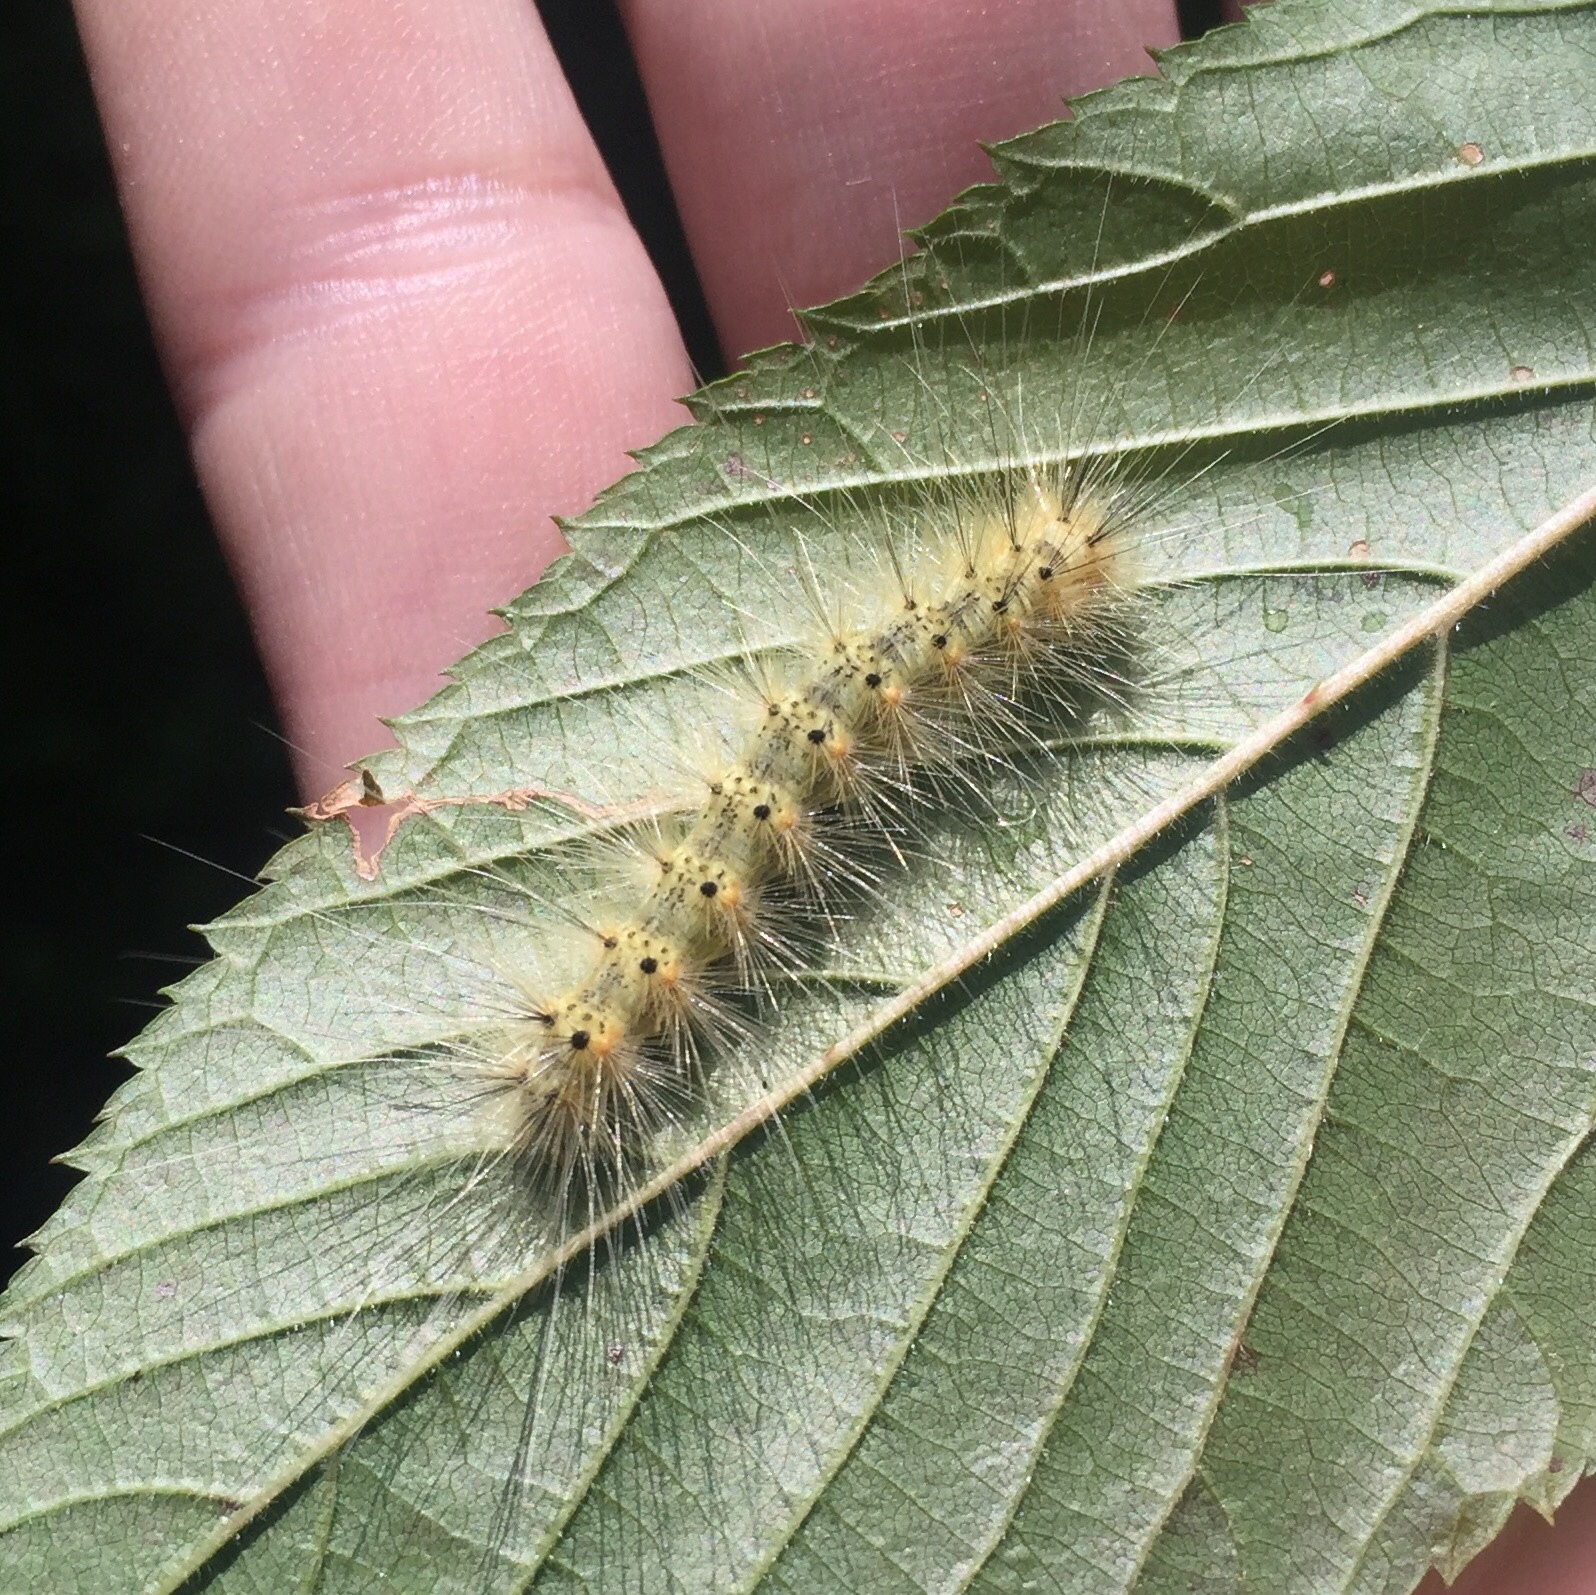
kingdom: Animalia
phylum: Arthropoda
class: Insecta
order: Lepidoptera
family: Erebidae
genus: Hyphantria
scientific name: Hyphantria cunea
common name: American white moth
